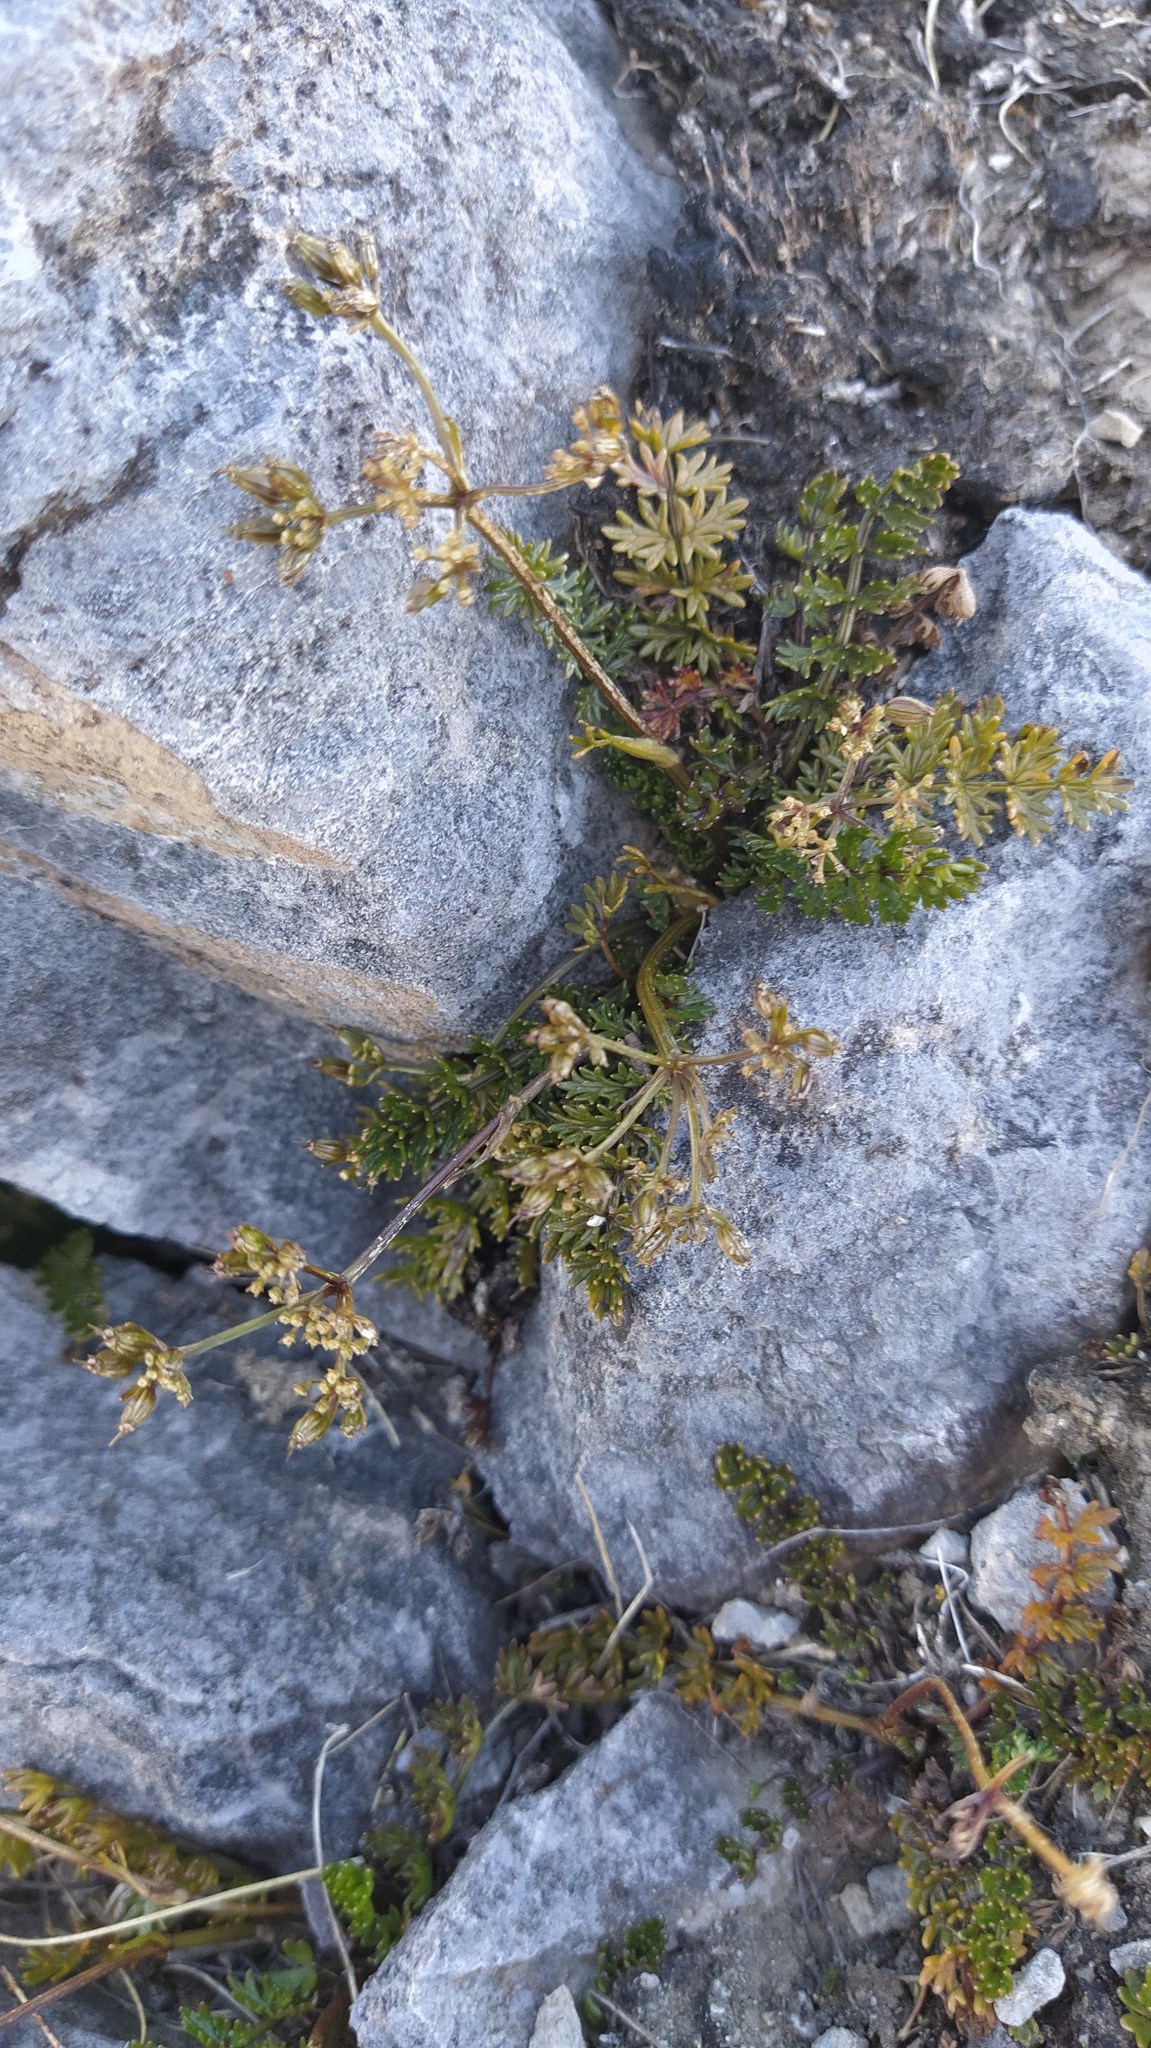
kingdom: Plantae
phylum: Tracheophyta
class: Magnoliopsida
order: Apiales
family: Apiaceae
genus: Gingidia
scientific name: Gingidia decipiens
